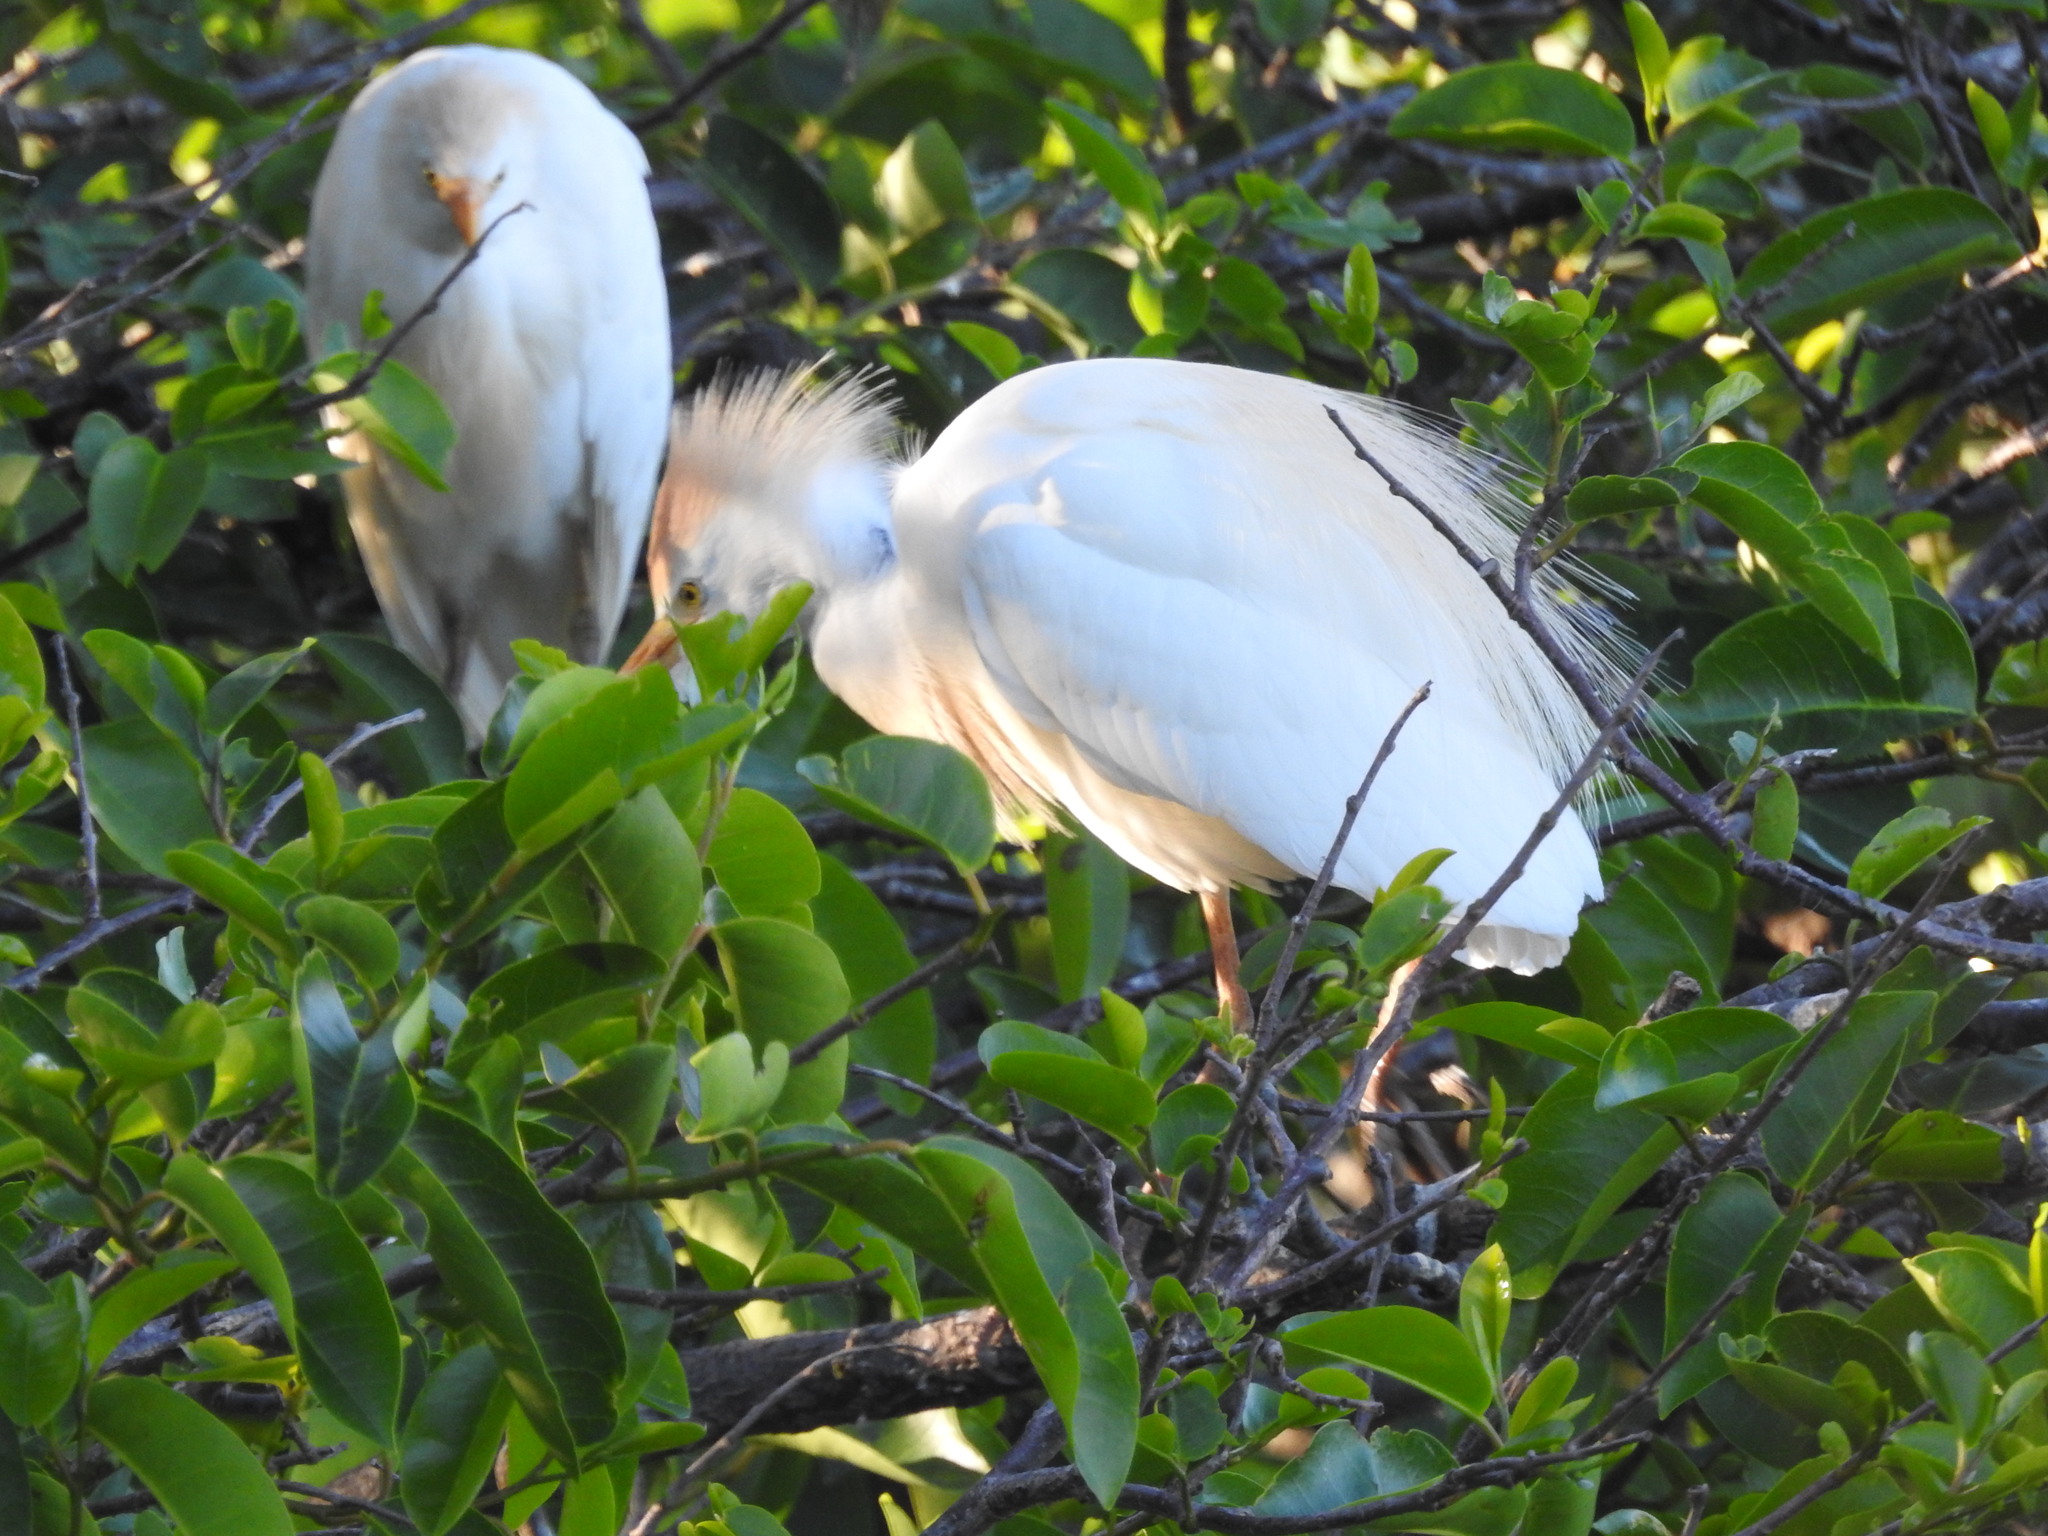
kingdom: Animalia
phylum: Chordata
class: Aves
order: Pelecaniformes
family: Ardeidae
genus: Bubulcus
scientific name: Bubulcus ibis
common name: Cattle egret
